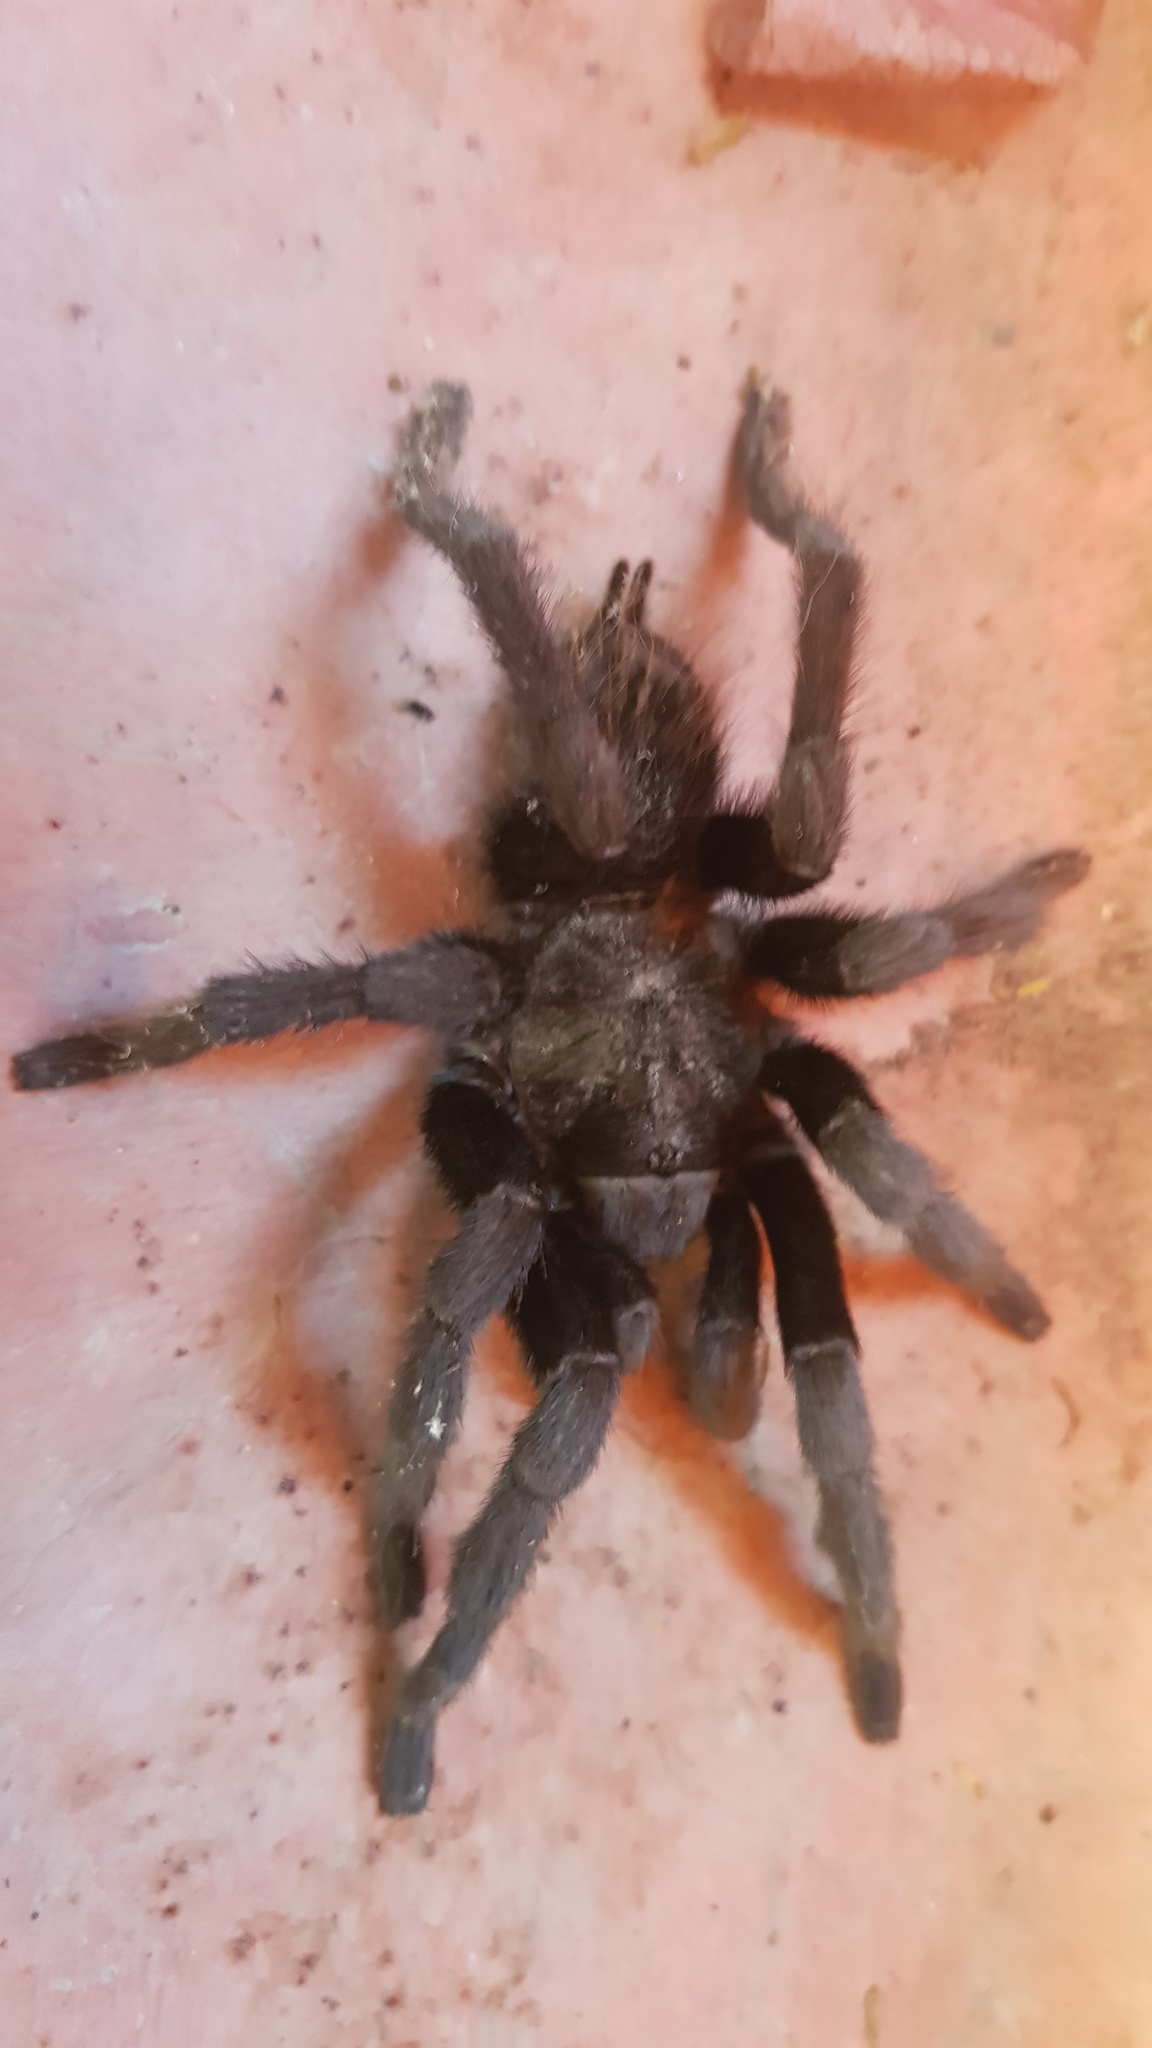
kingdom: Animalia
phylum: Arthropoda
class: Arachnida
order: Araneae
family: Theraphosidae
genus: Tliltocatl
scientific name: Tliltocatl schroederi
